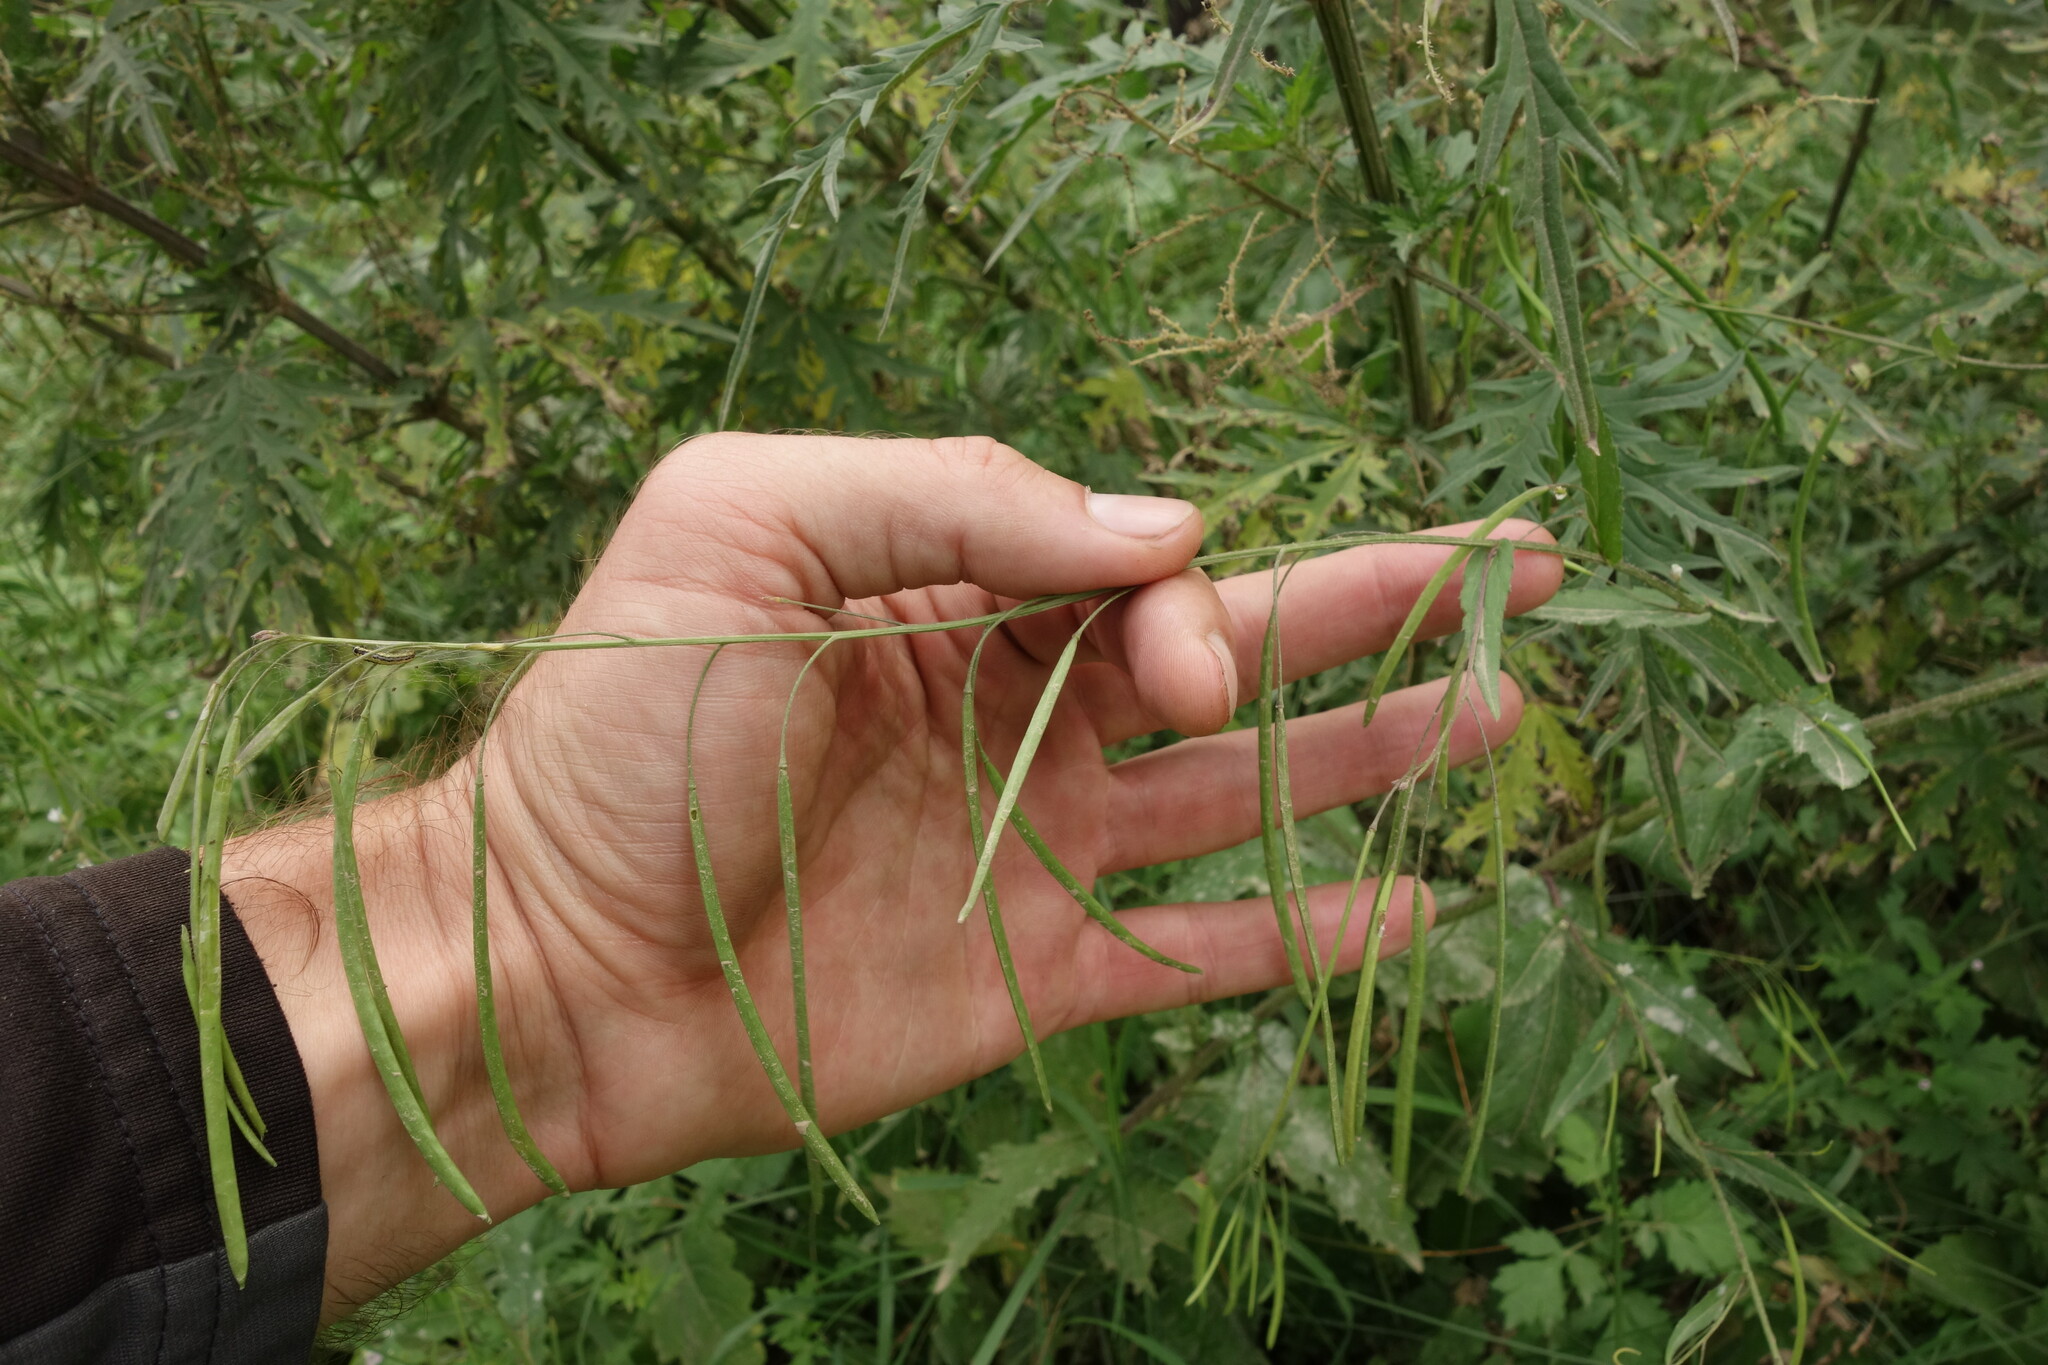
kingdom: Plantae
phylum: Tracheophyta
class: Magnoliopsida
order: Brassicales
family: Brassicaceae
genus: Catolobus
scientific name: Catolobus pendulus
